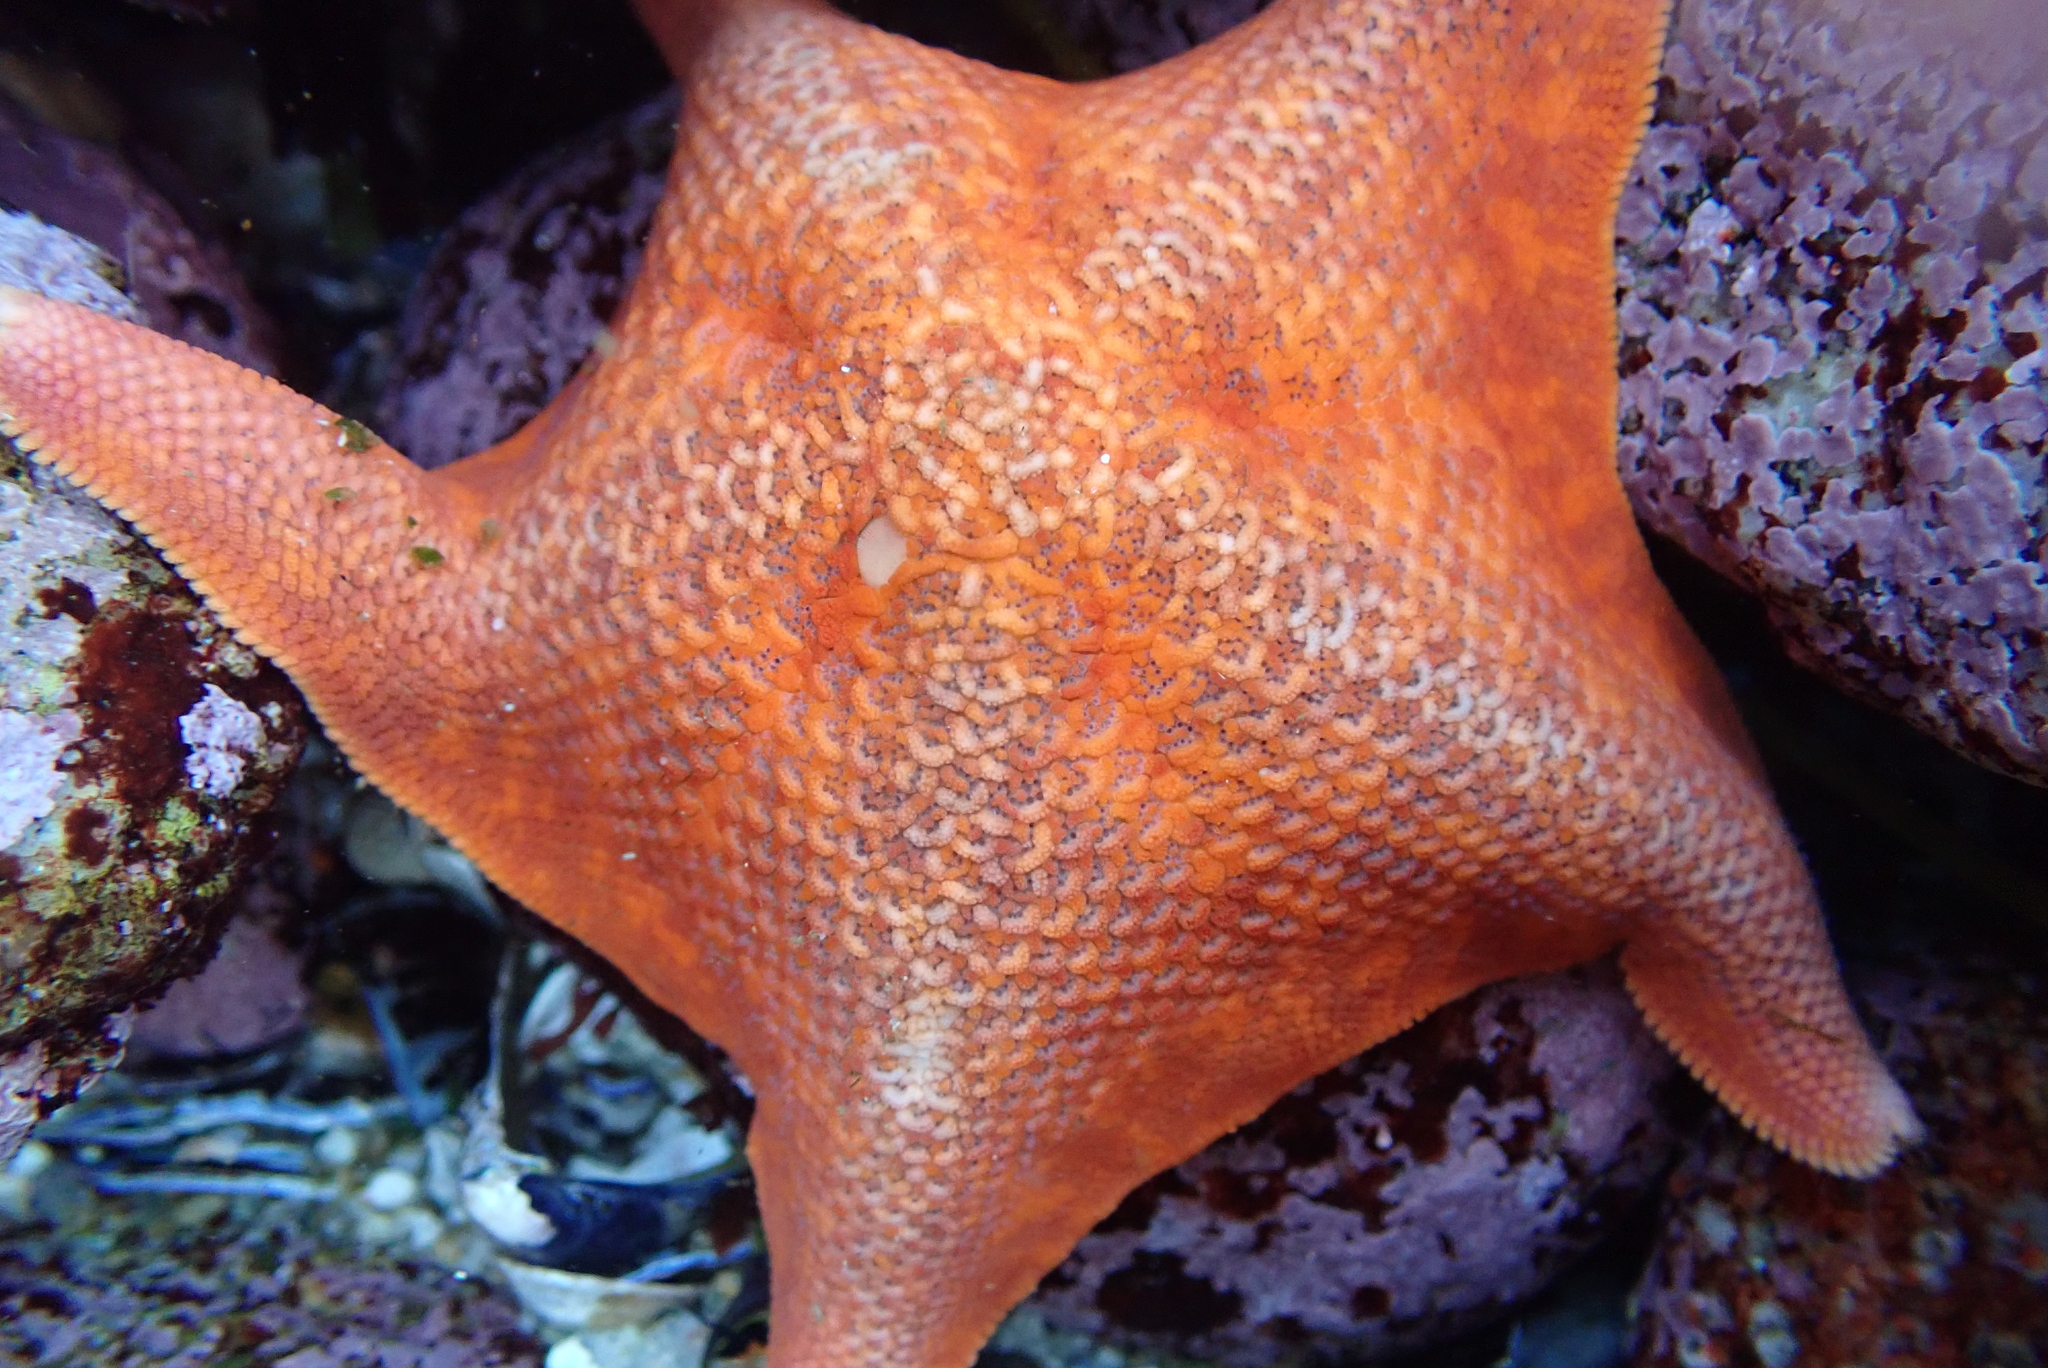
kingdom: Animalia
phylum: Echinodermata
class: Asteroidea
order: Valvatida
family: Asterinidae
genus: Patiria
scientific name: Patiria miniata
